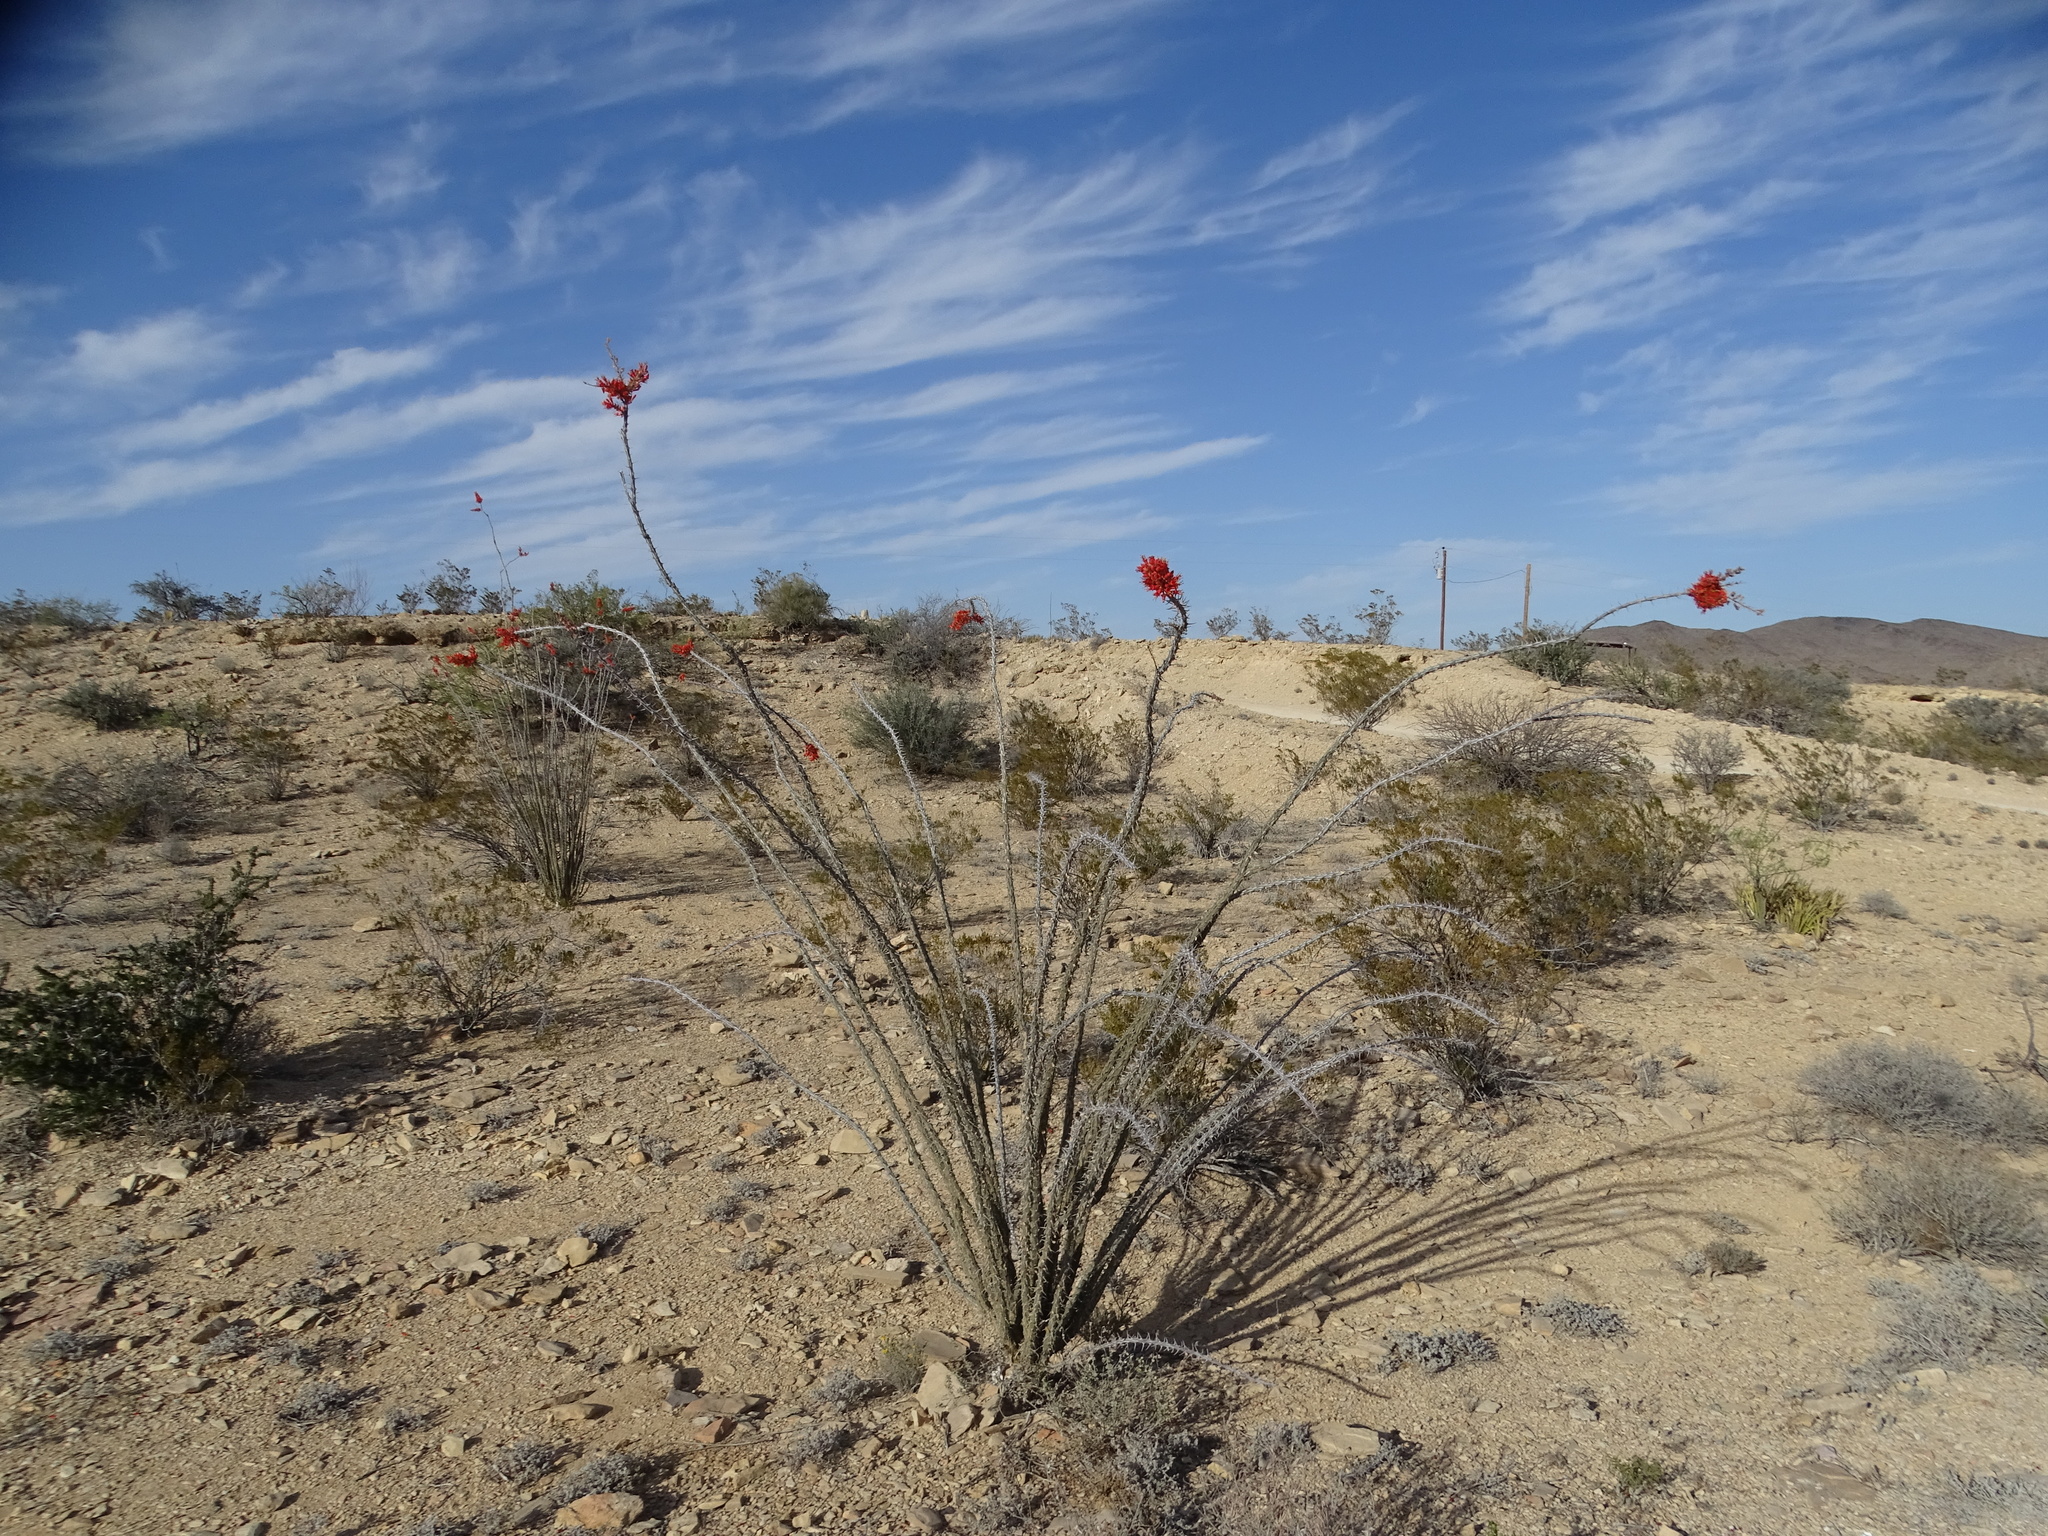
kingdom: Plantae
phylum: Tracheophyta
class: Magnoliopsida
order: Ericales
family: Fouquieriaceae
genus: Fouquieria
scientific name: Fouquieria splendens
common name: Vine-cactus
